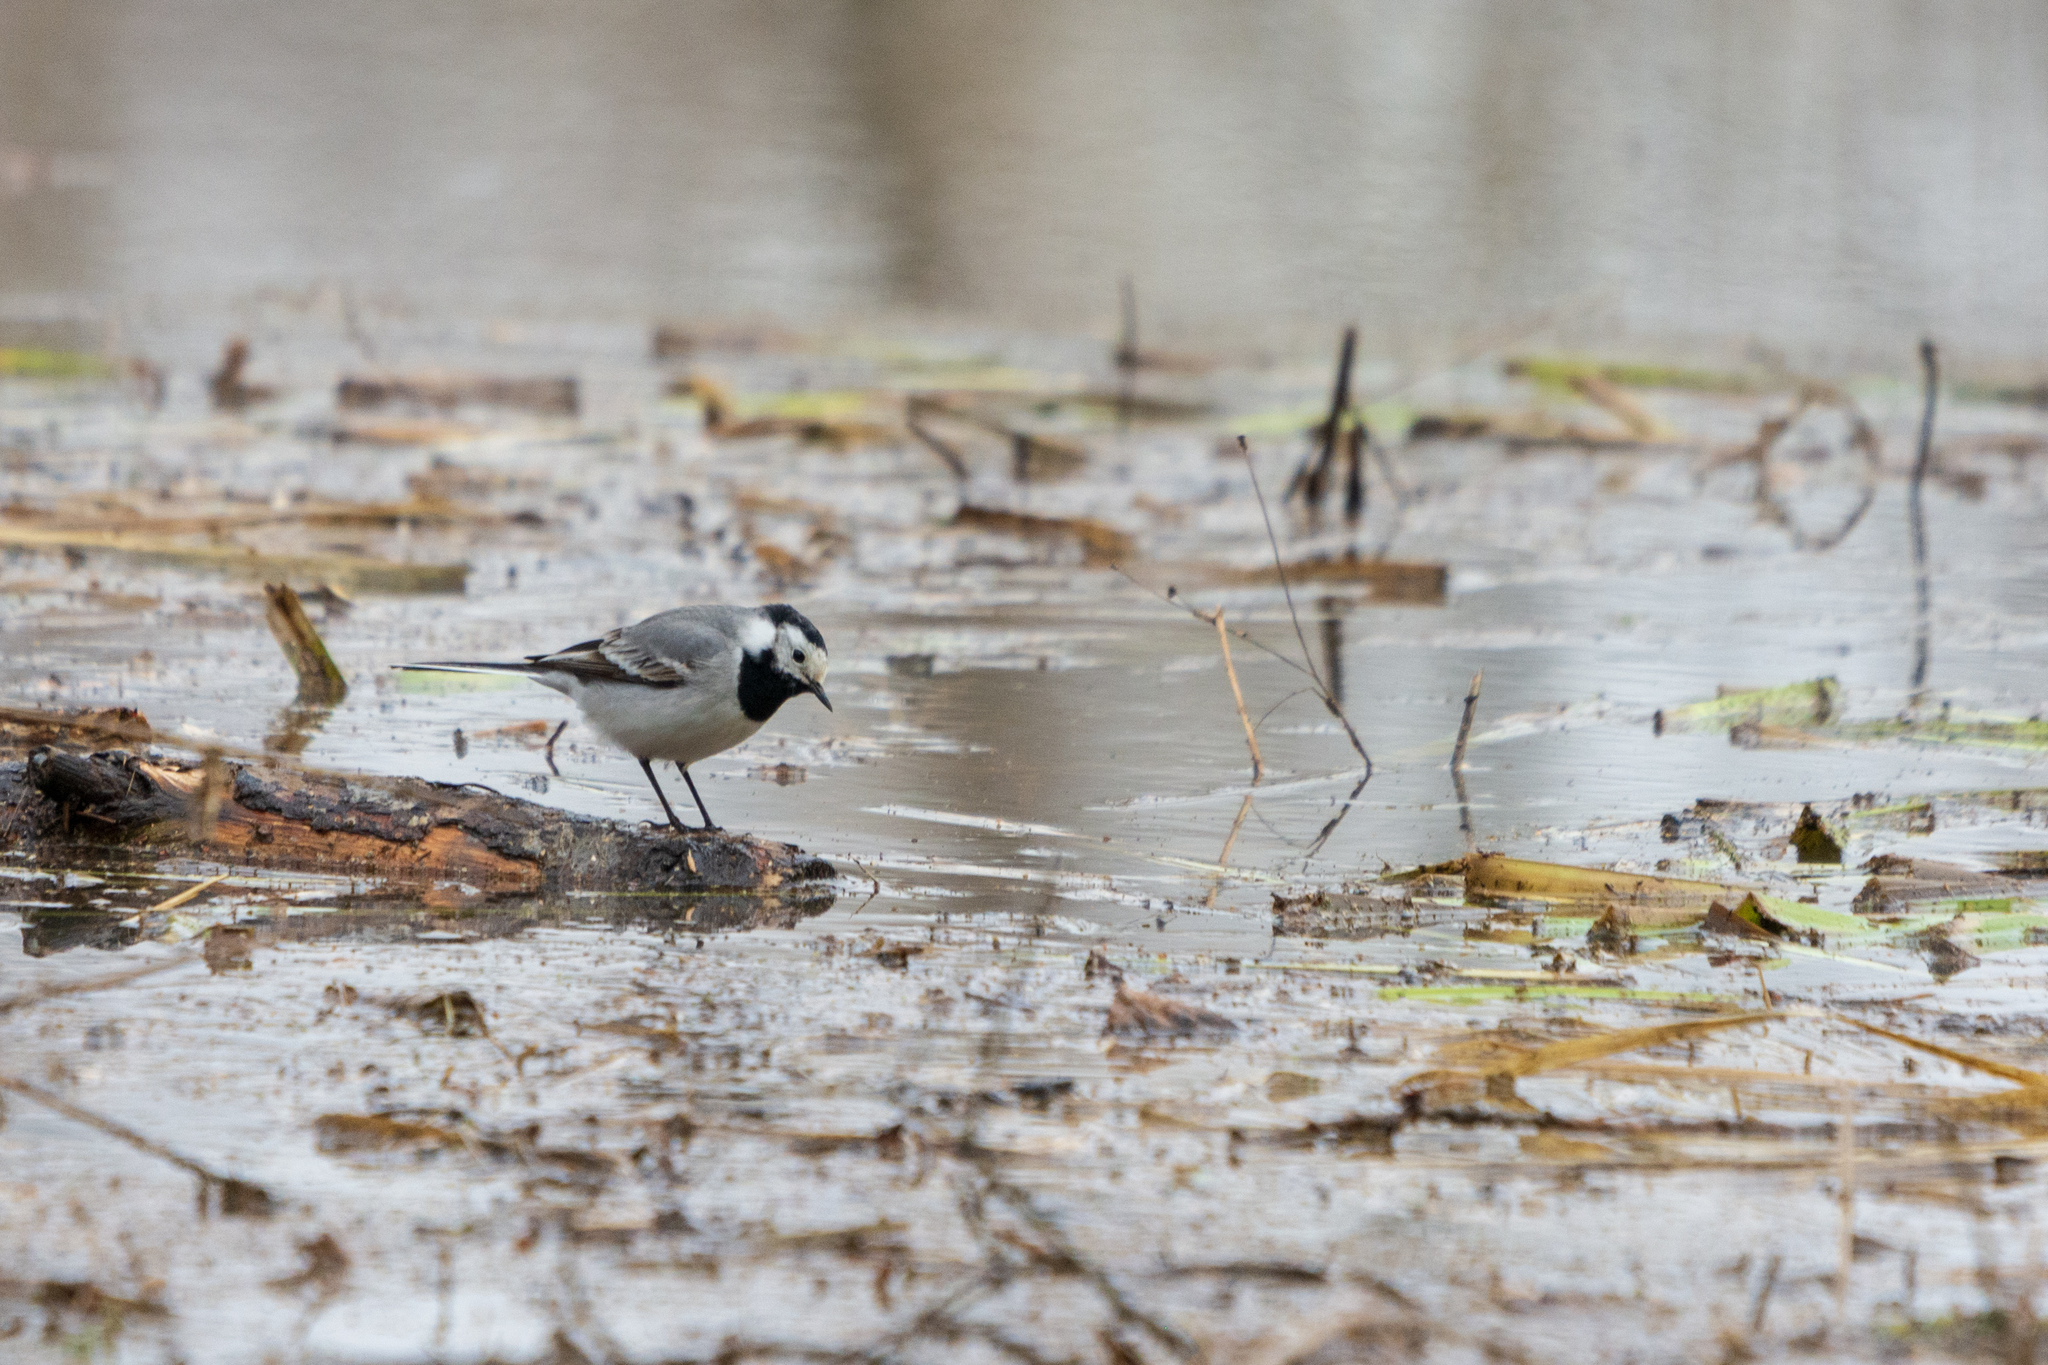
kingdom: Animalia
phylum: Chordata
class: Aves
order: Passeriformes
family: Motacillidae
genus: Motacilla
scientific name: Motacilla alba
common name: White wagtail
